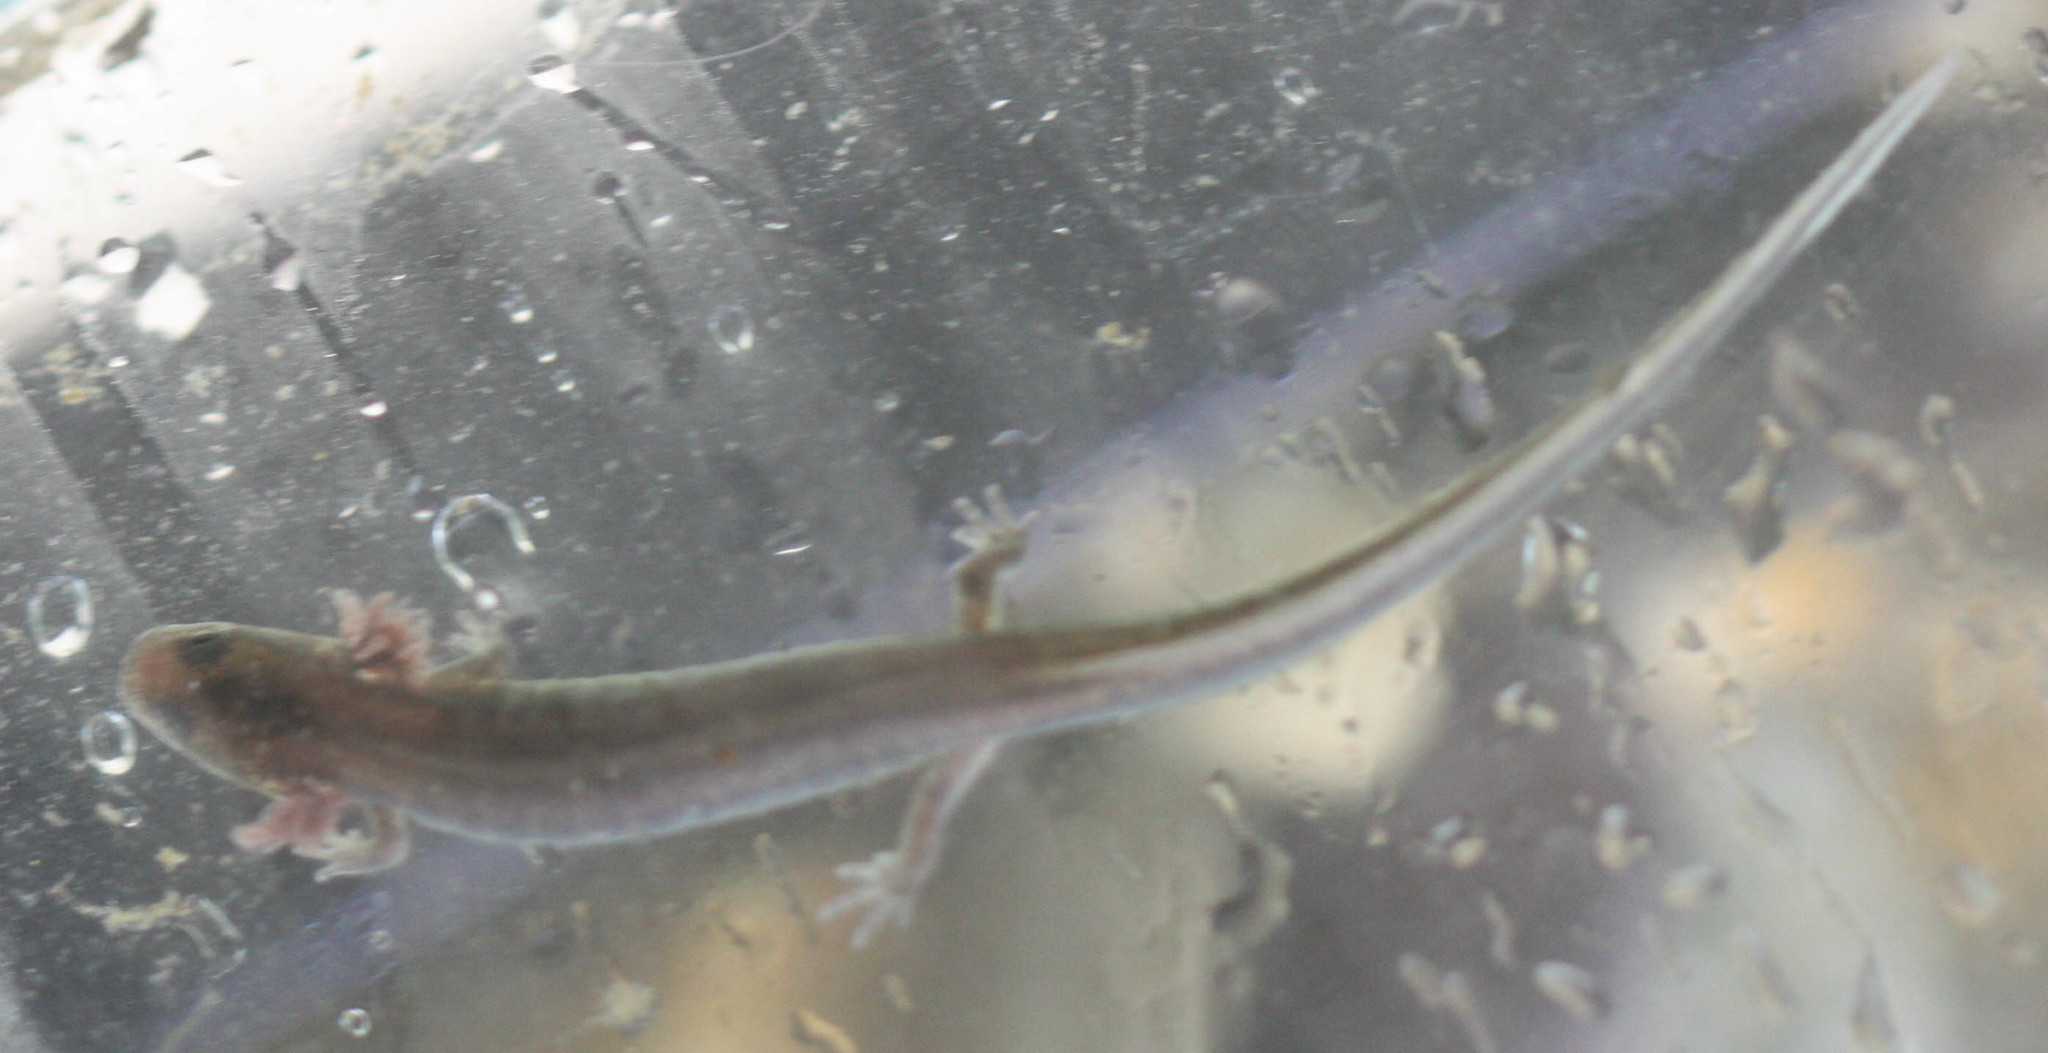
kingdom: Animalia
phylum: Chordata
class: Amphibia
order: Caudata
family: Plethodontidae
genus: Pseudotriton
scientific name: Pseudotriton ruber
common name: Red salamander
